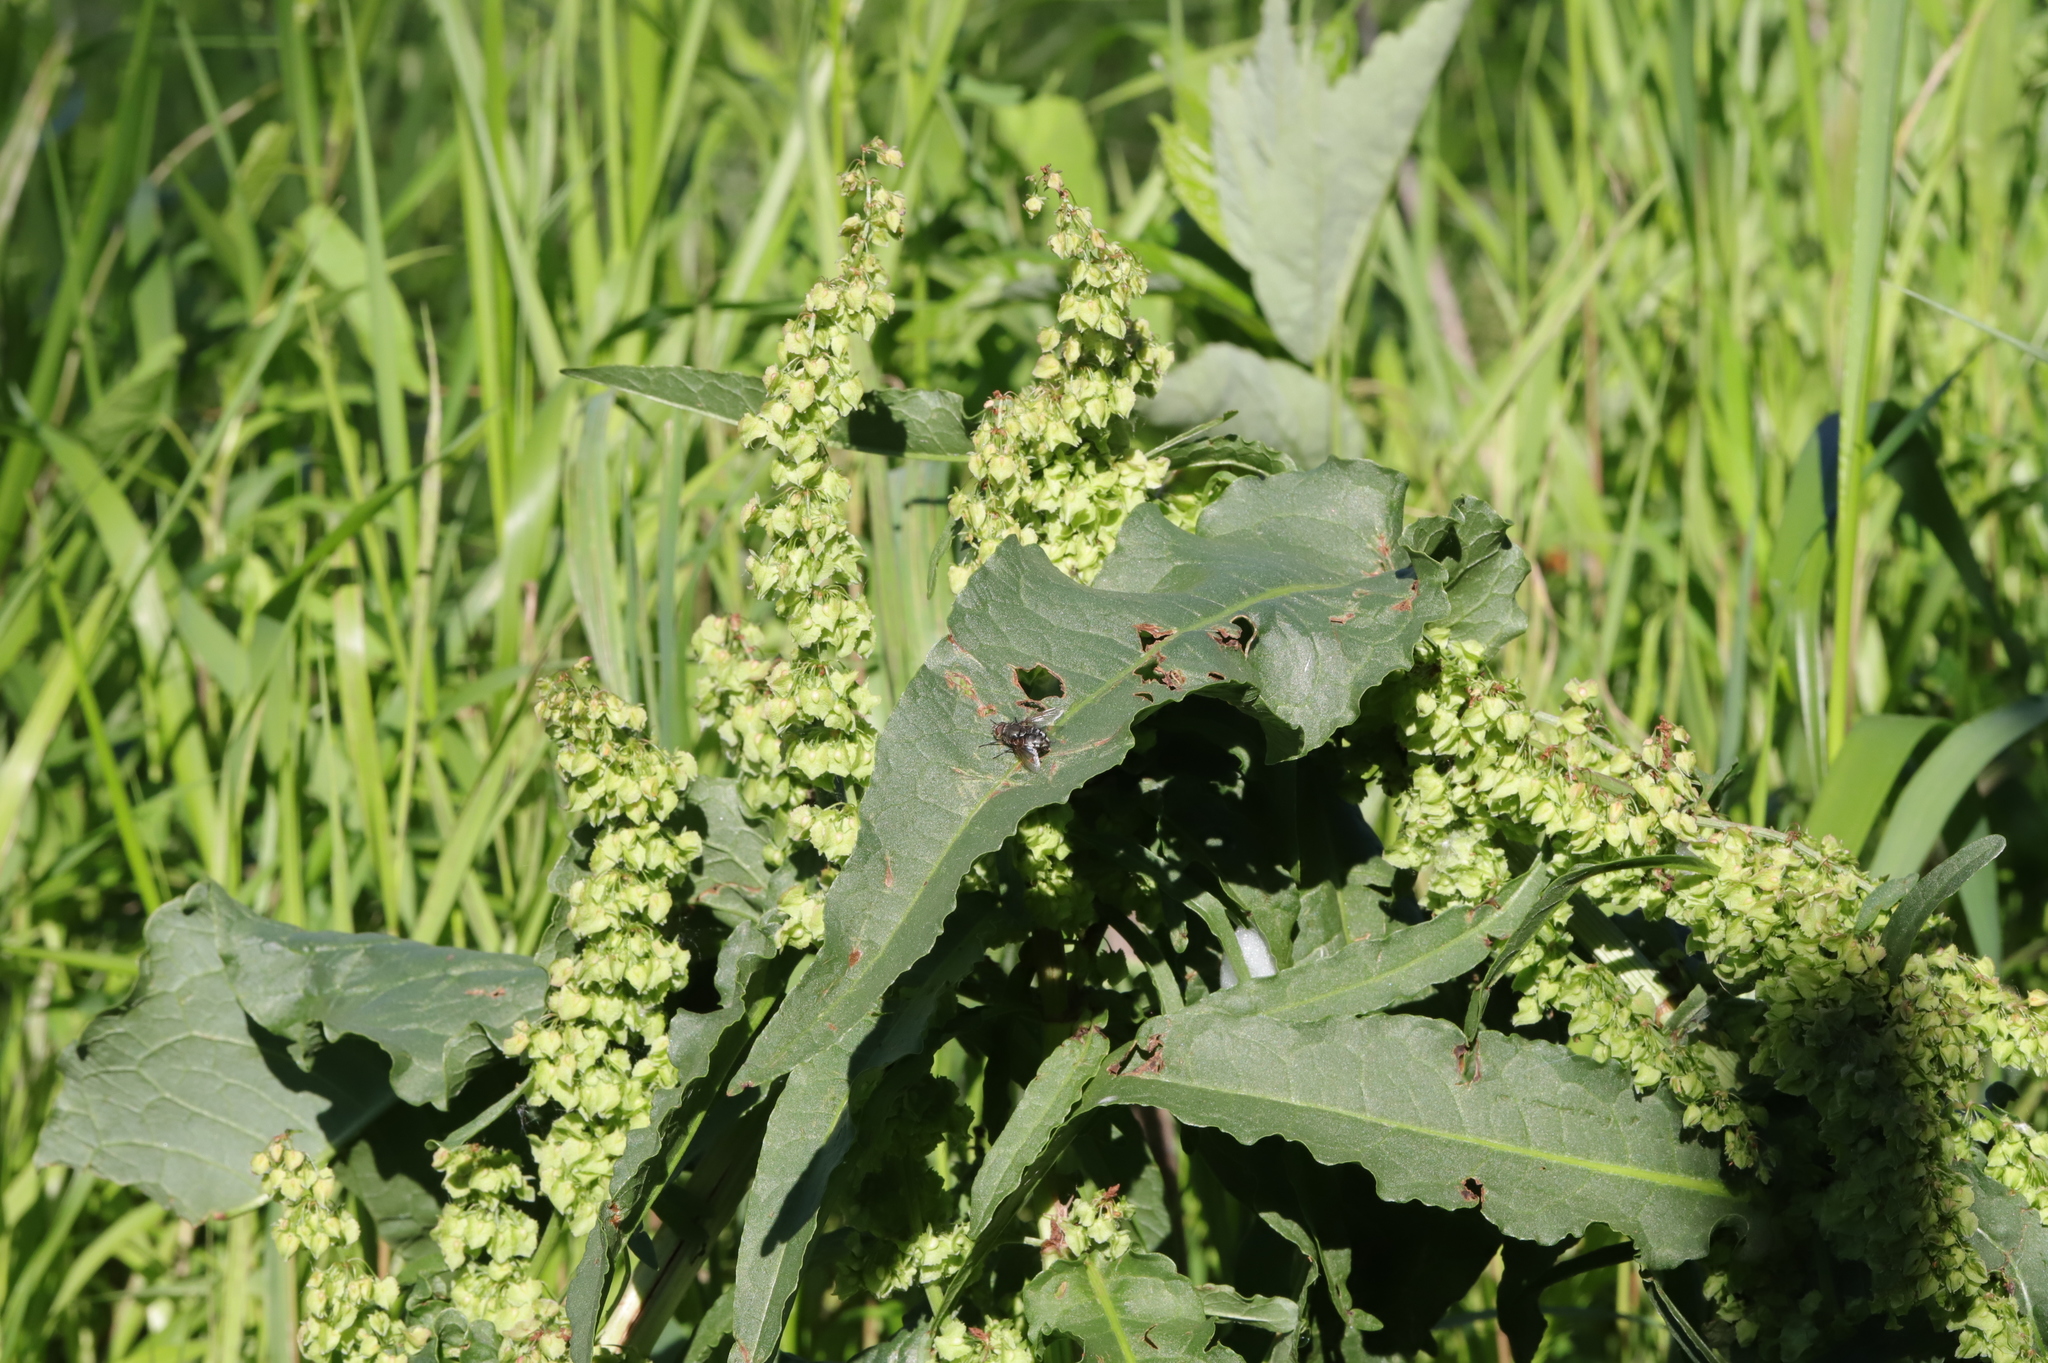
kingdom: Plantae
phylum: Tracheophyta
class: Magnoliopsida
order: Caryophyllales
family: Polygonaceae
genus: Rumex
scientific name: Rumex crispus
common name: Curled dock
